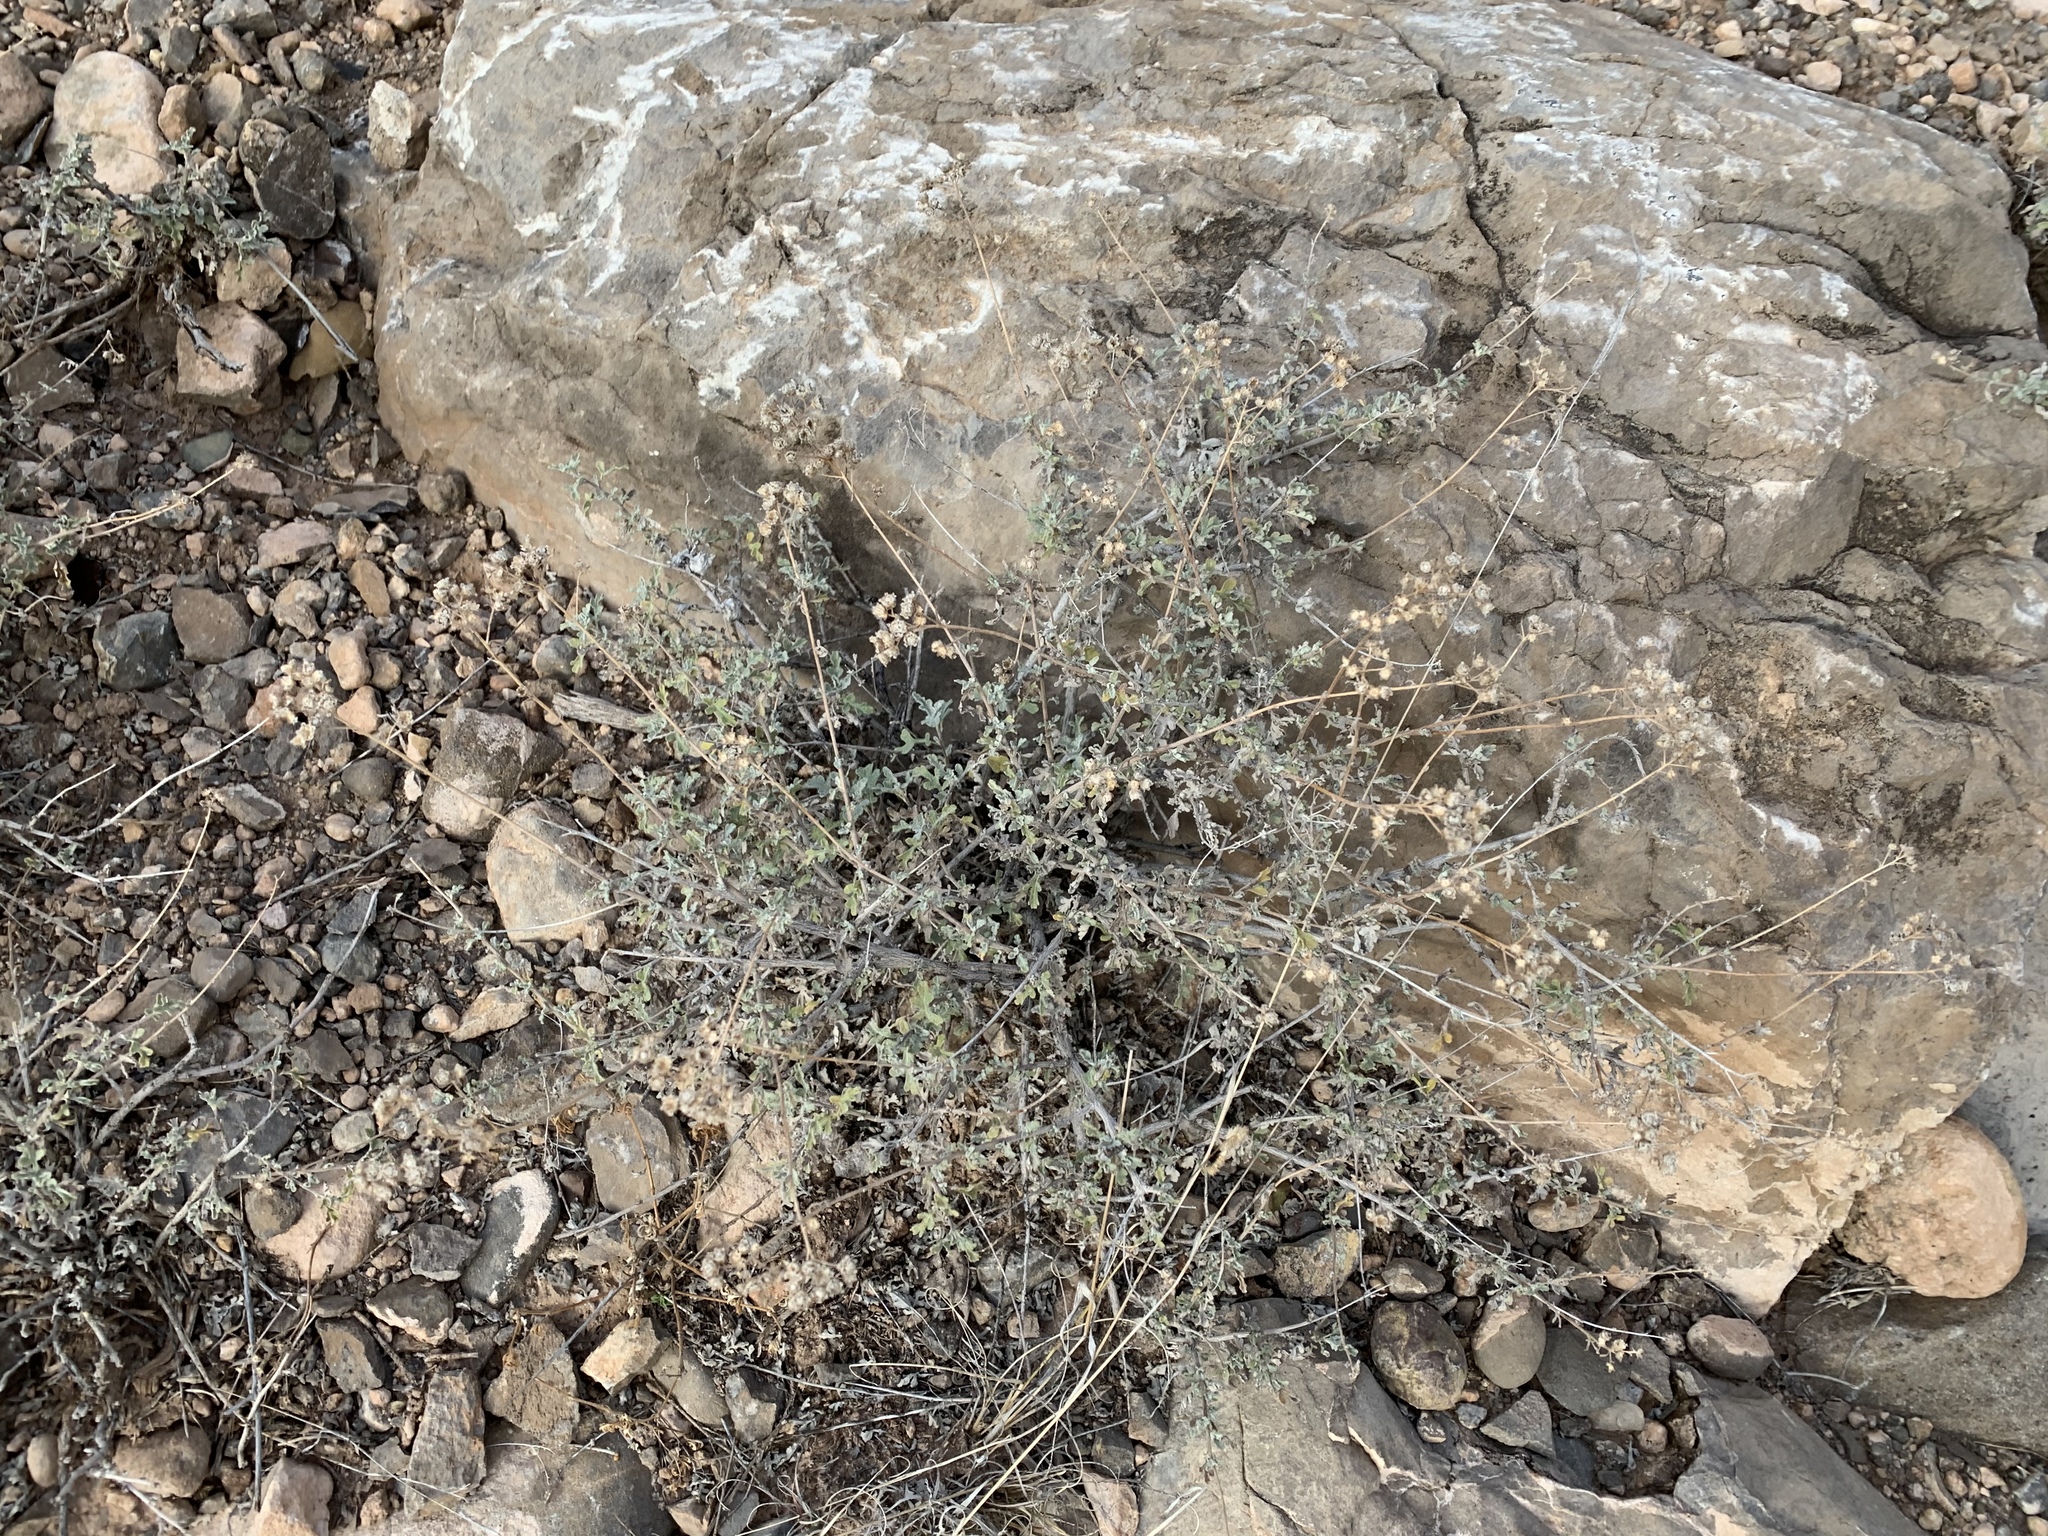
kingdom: Plantae
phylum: Tracheophyta
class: Magnoliopsida
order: Asterales
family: Asteraceae
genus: Parthenium
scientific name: Parthenium incanum
